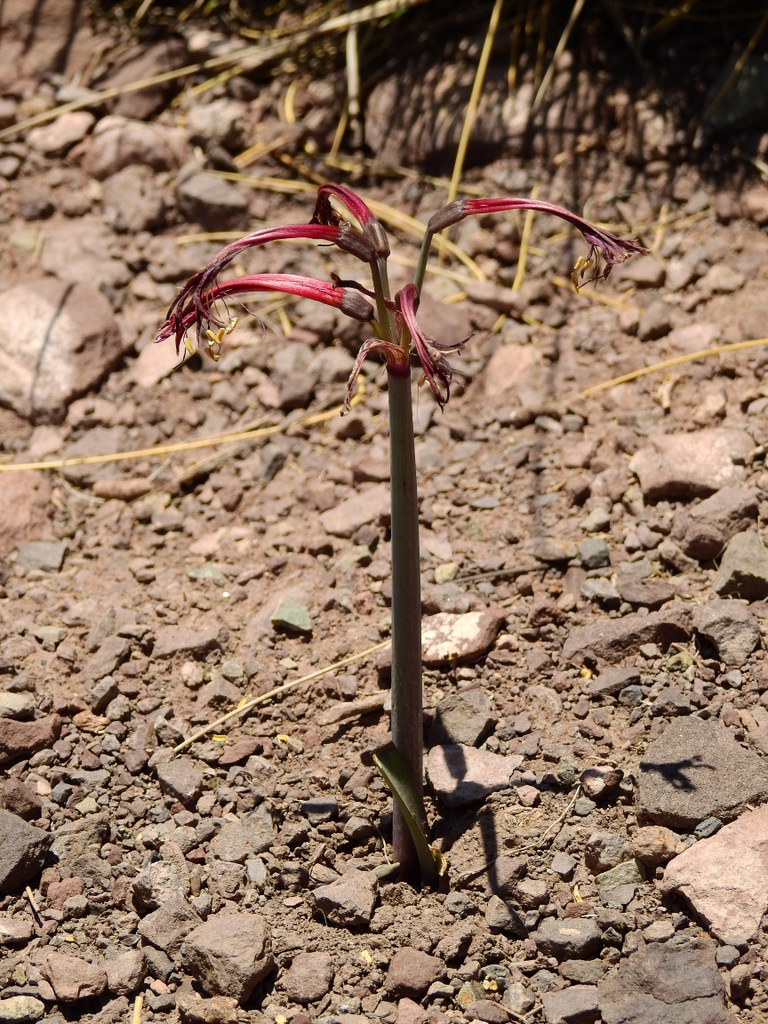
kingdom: Plantae
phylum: Tracheophyta
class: Liliopsida
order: Asparagales
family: Amaryllidaceae
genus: Zephyranthes
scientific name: Zephyranthes graciliflora
